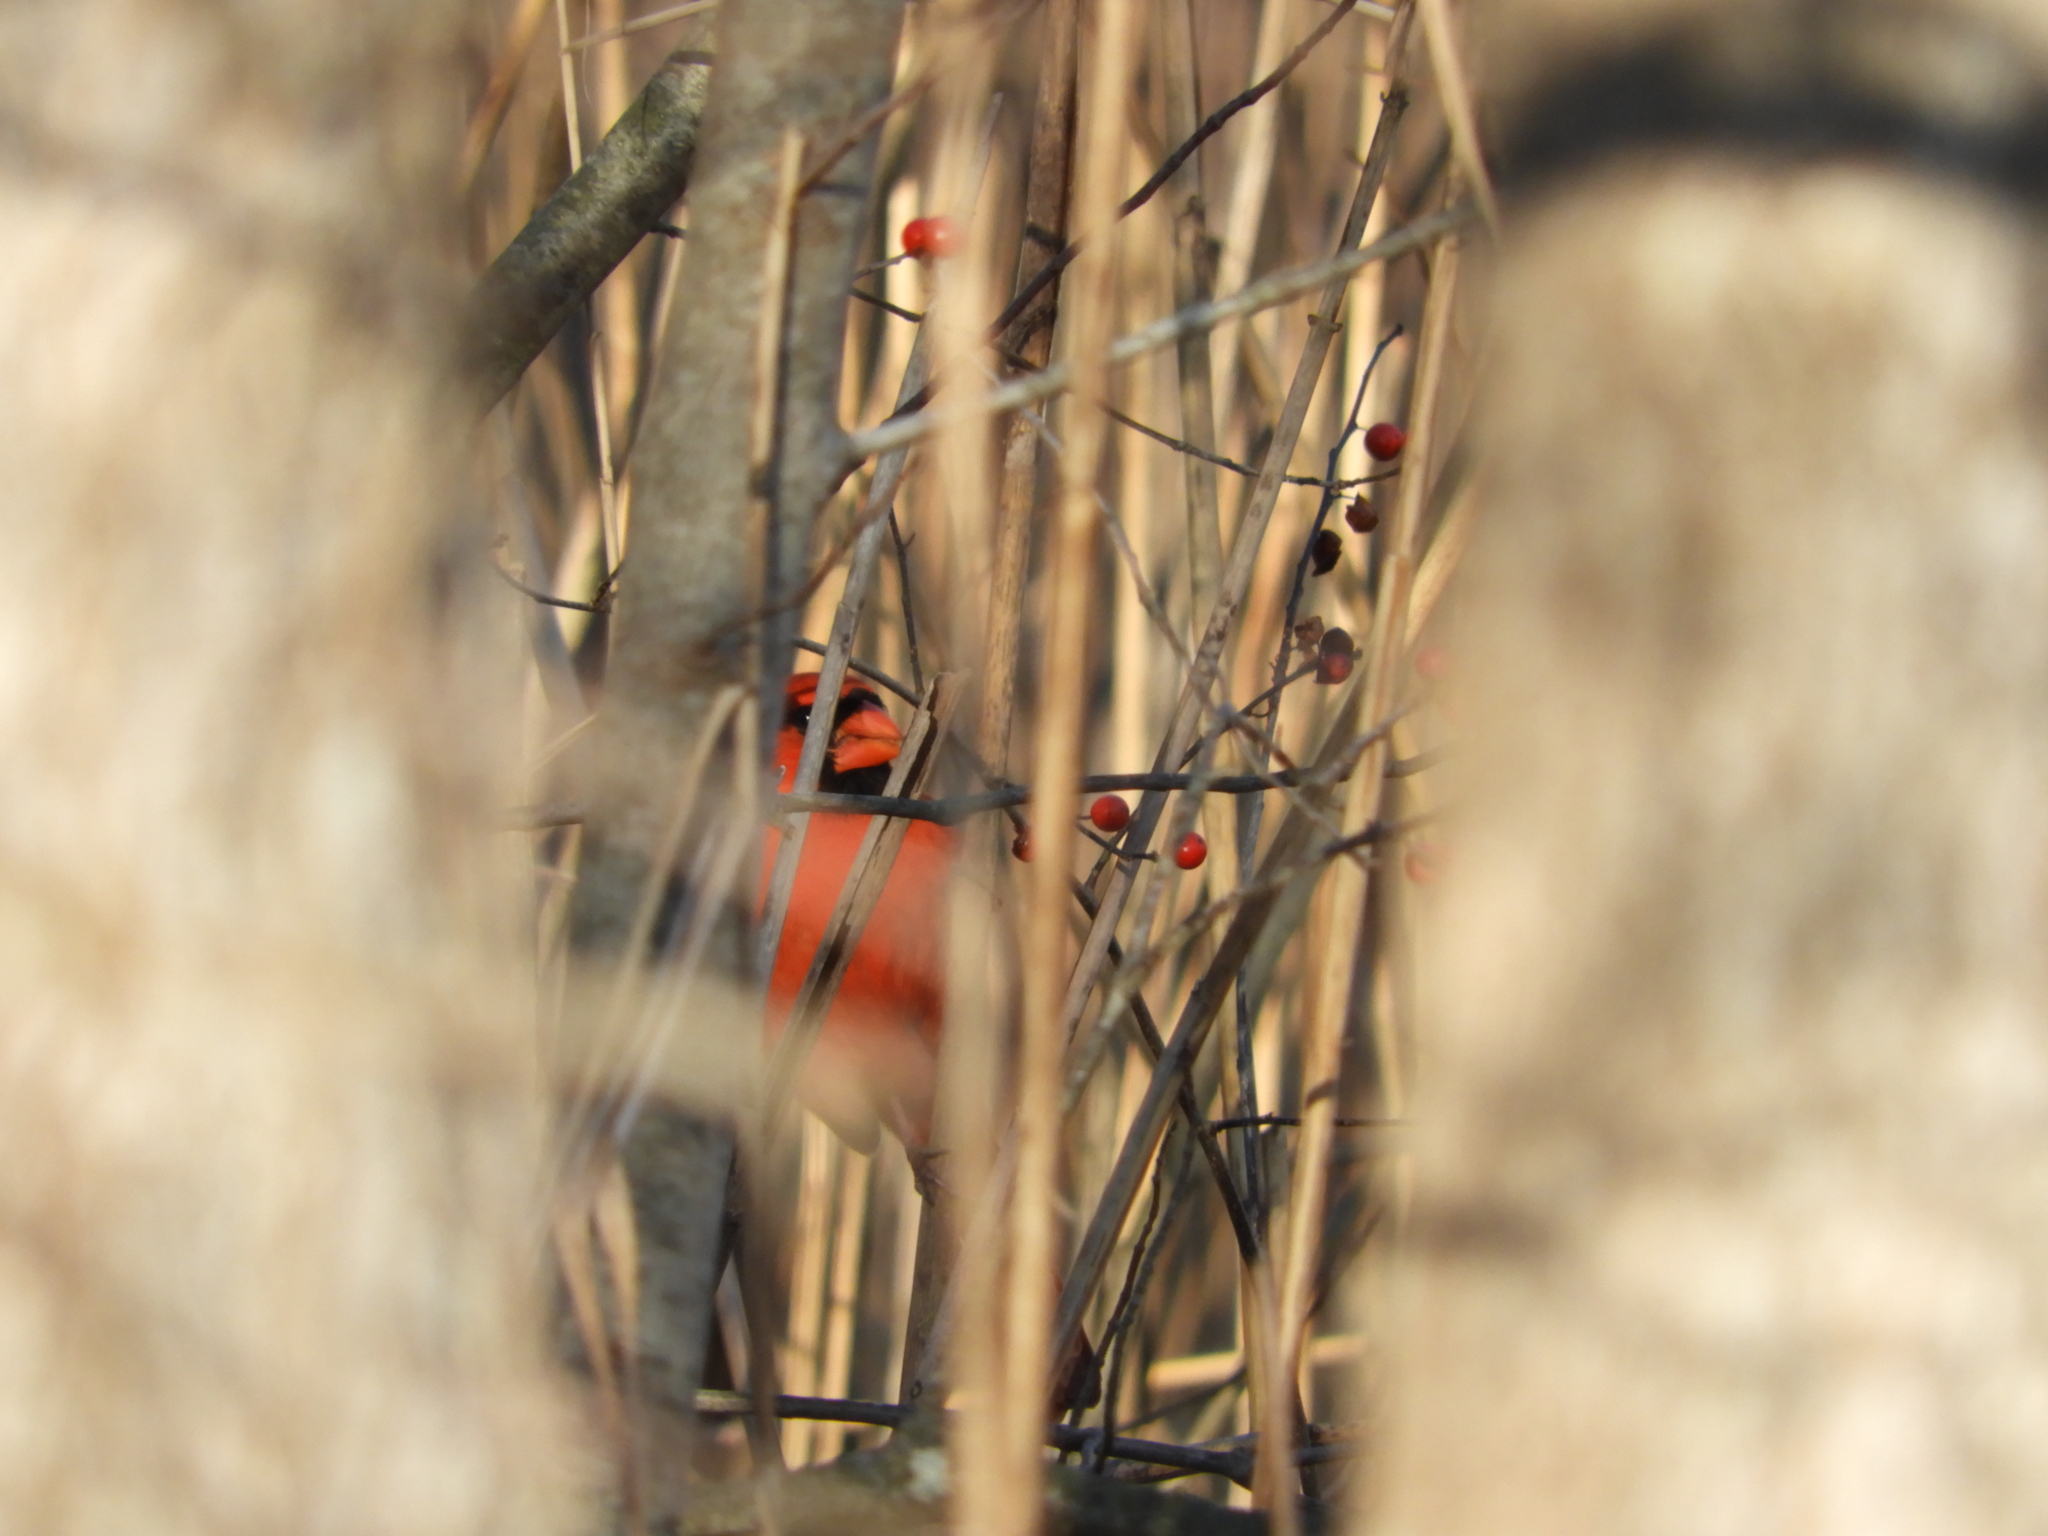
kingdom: Animalia
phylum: Chordata
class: Aves
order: Passeriformes
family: Cardinalidae
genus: Cardinalis
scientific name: Cardinalis cardinalis
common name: Northern cardinal
